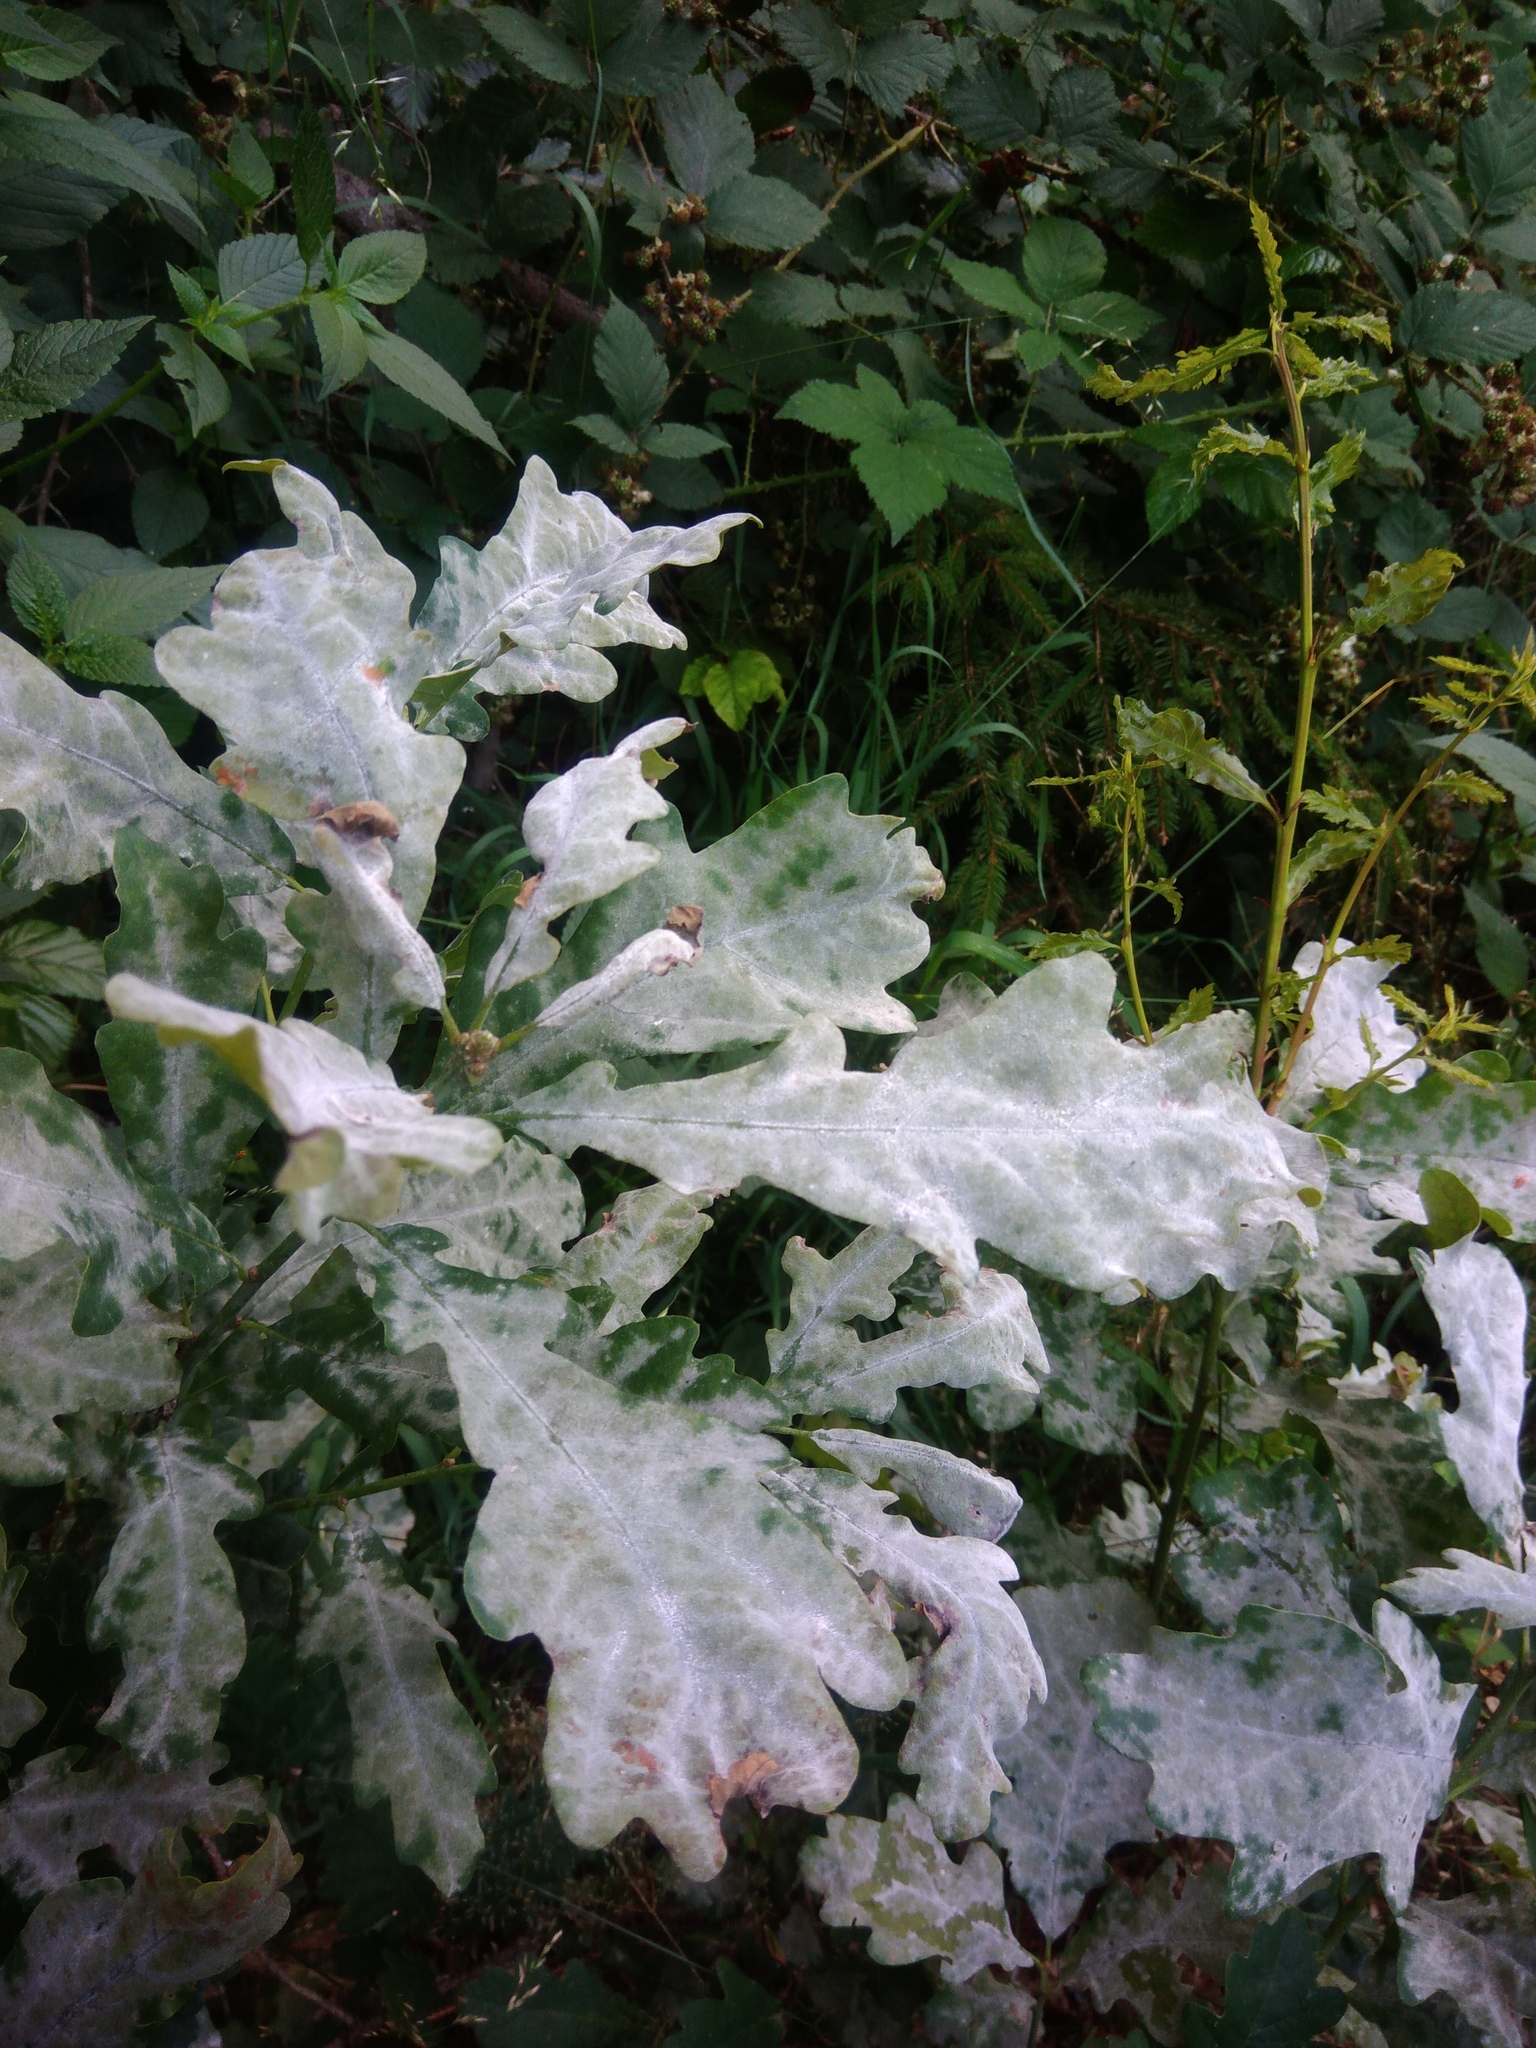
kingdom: Fungi
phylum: Ascomycota
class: Leotiomycetes
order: Helotiales
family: Erysiphaceae
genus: Erysiphe
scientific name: Erysiphe alphitoides
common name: Oak mildew
